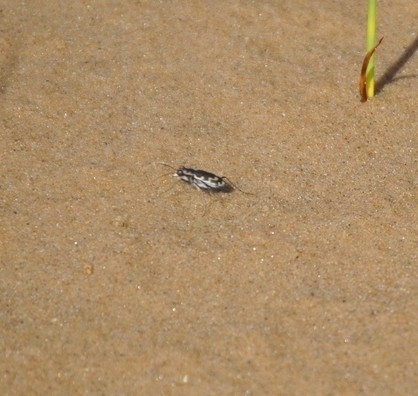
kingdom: Animalia
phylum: Arthropoda
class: Insecta
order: Coleoptera
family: Carabidae
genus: Cicindela
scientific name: Cicindela repanda
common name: Bronzed tiger beetle
